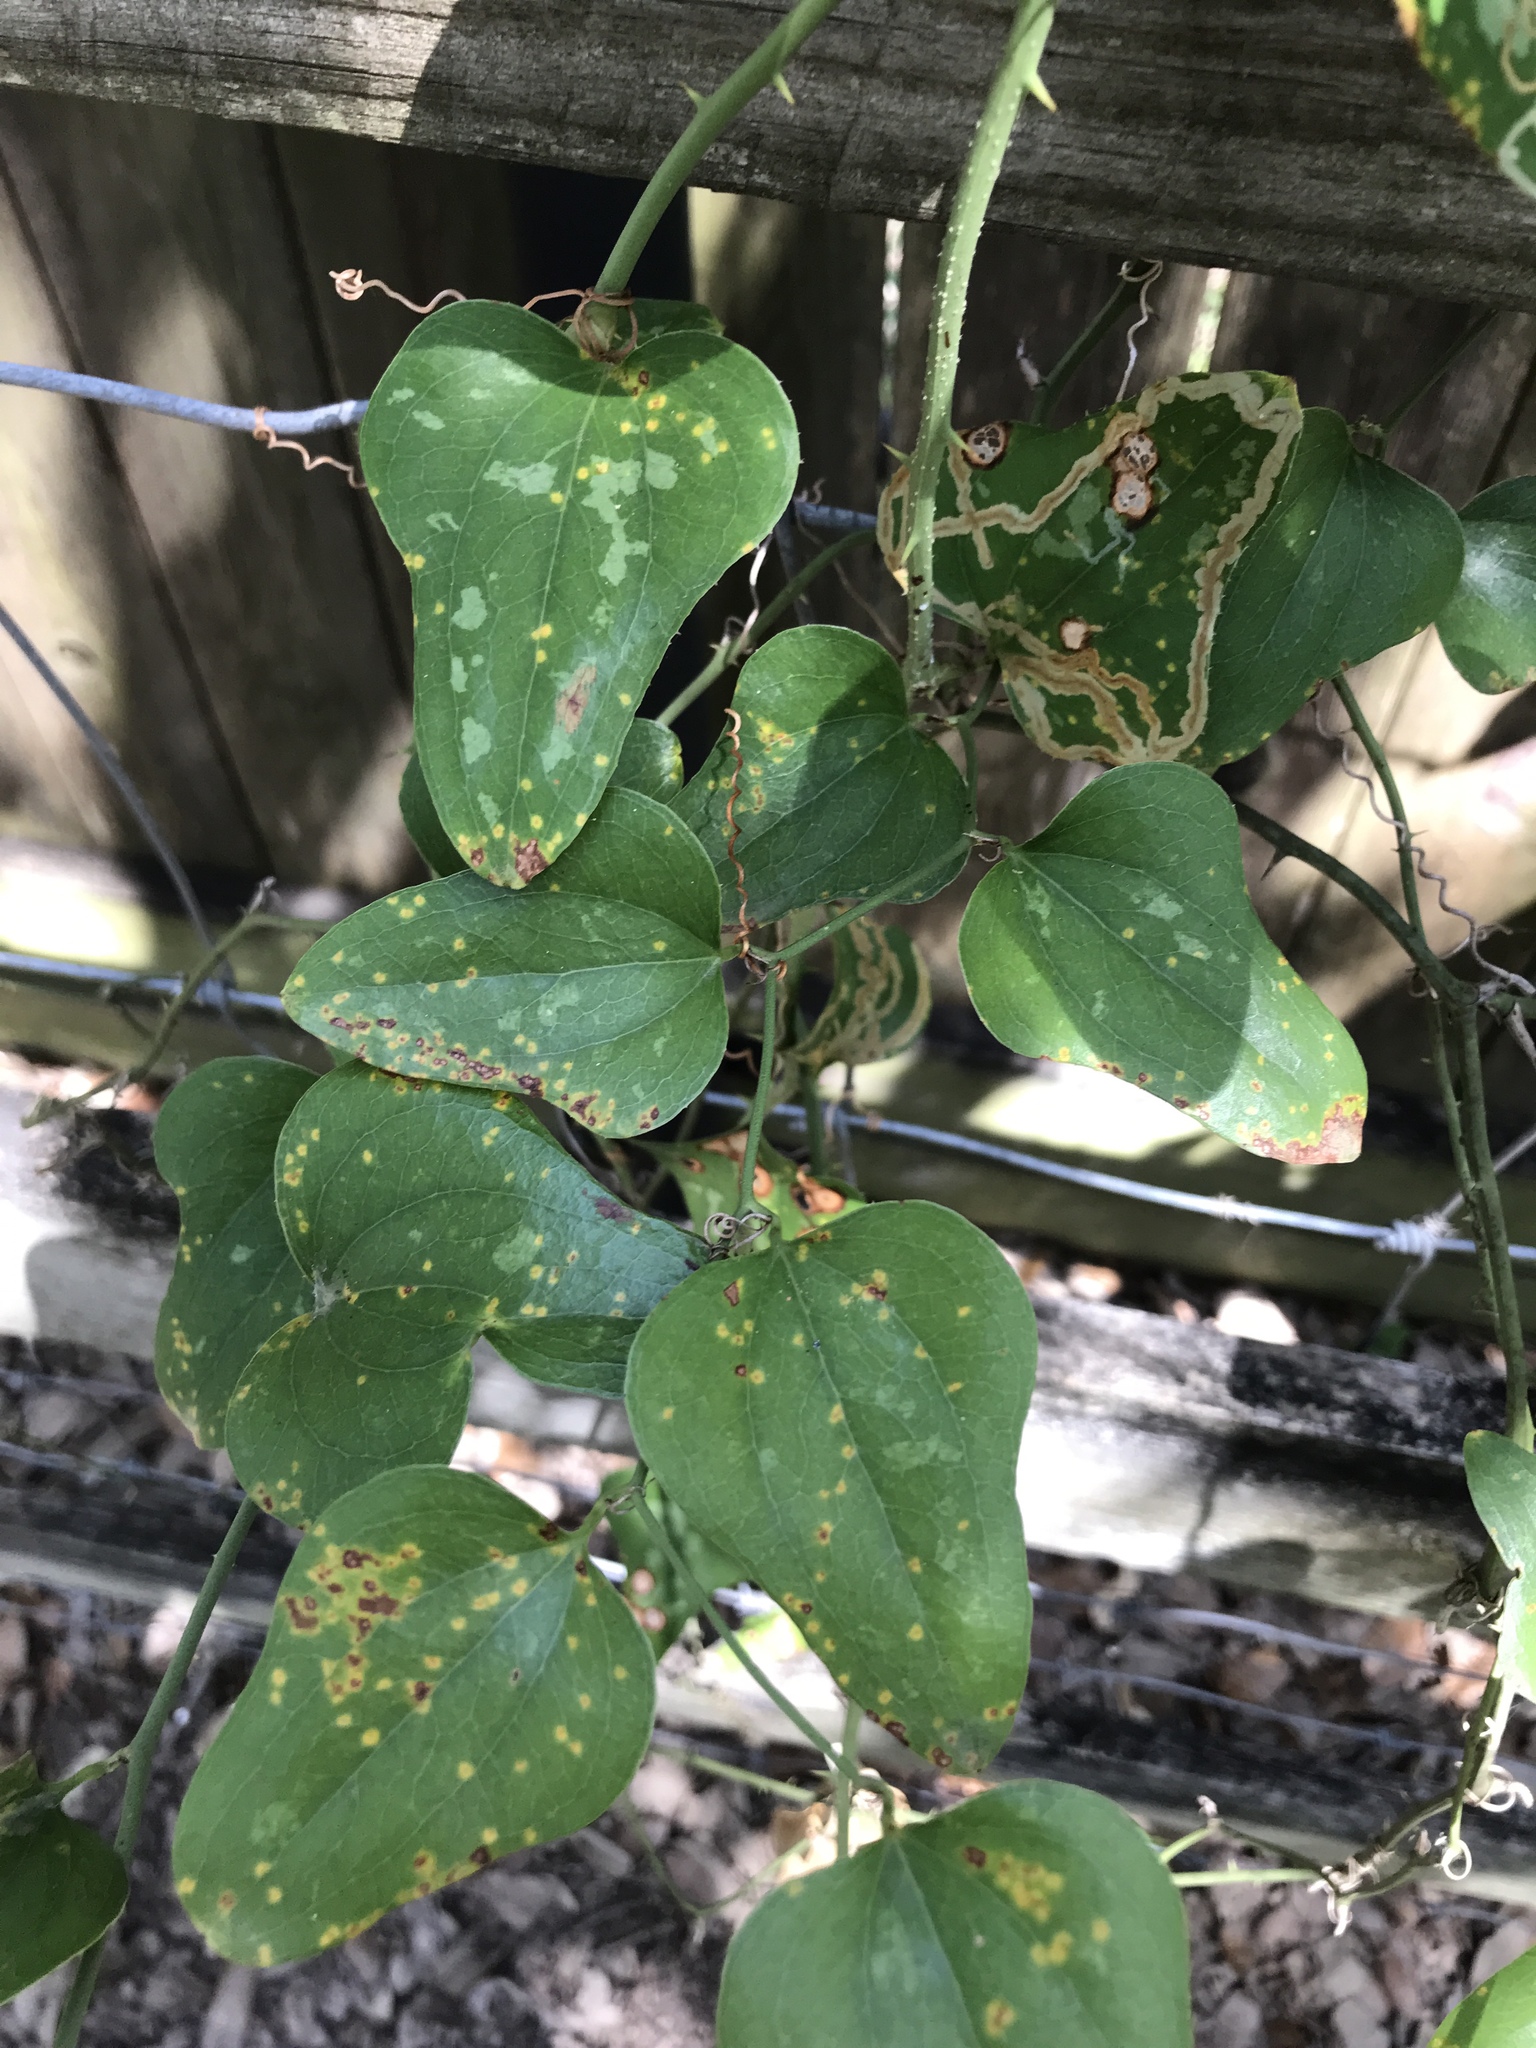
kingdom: Plantae
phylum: Tracheophyta
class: Liliopsida
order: Liliales
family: Smilacaceae
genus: Smilax
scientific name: Smilax bona-nox
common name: Catbrier
